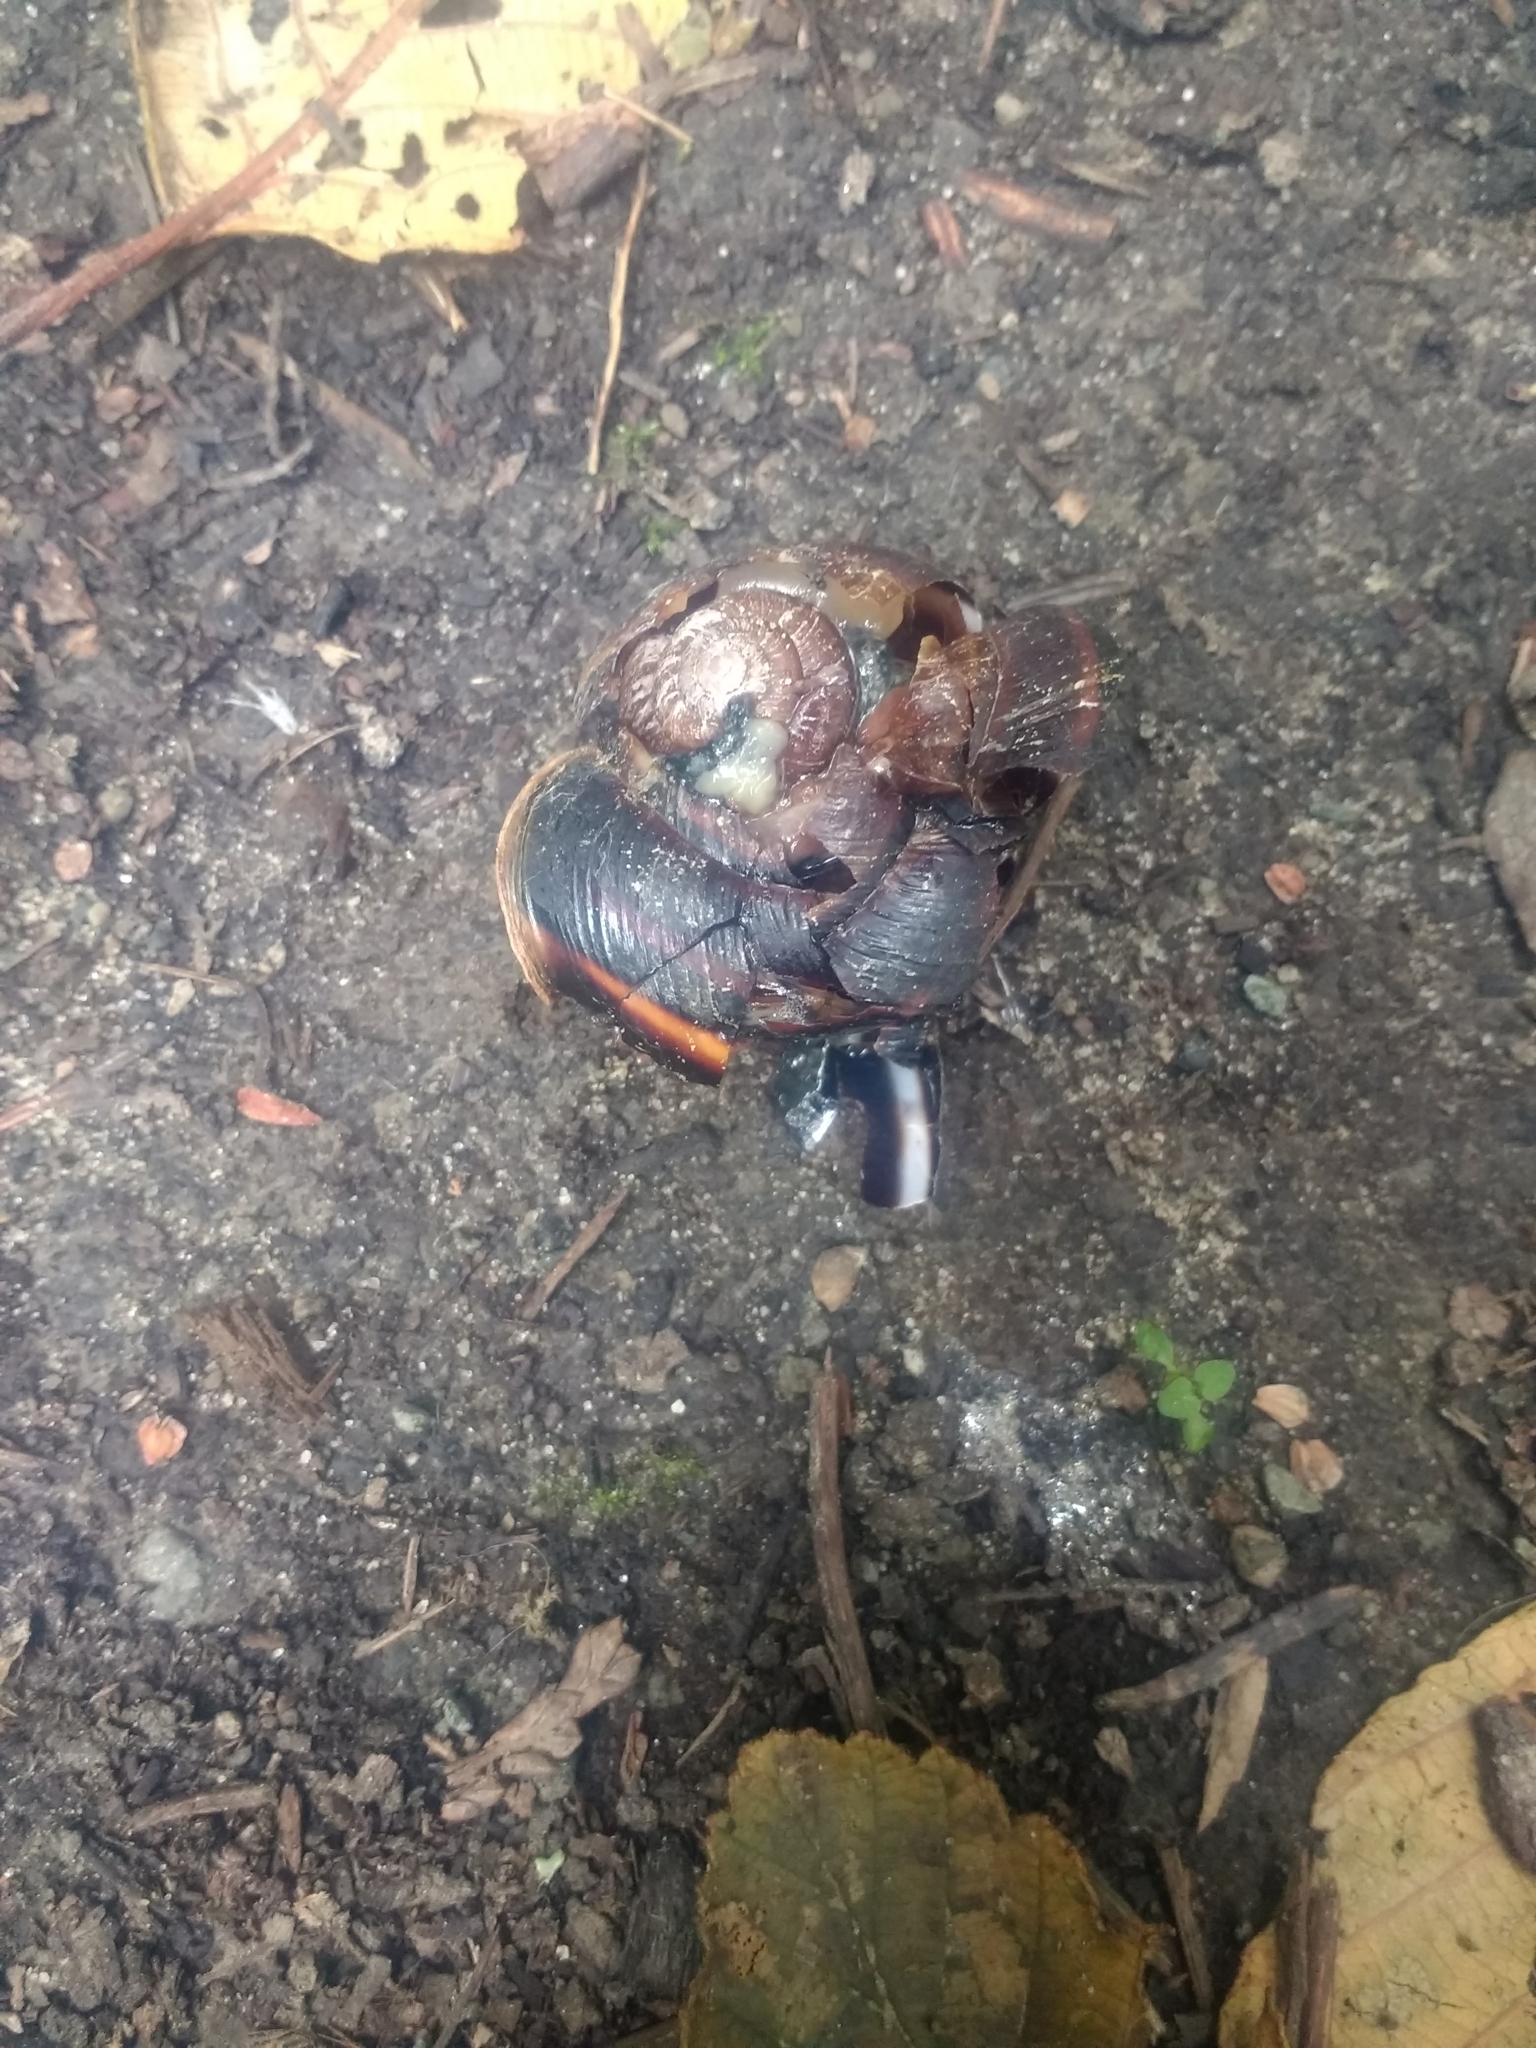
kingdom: Animalia
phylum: Mollusca
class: Gastropoda
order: Stylommatophora
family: Xanthonychidae
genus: Monadenia
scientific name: Monadenia fidelis
